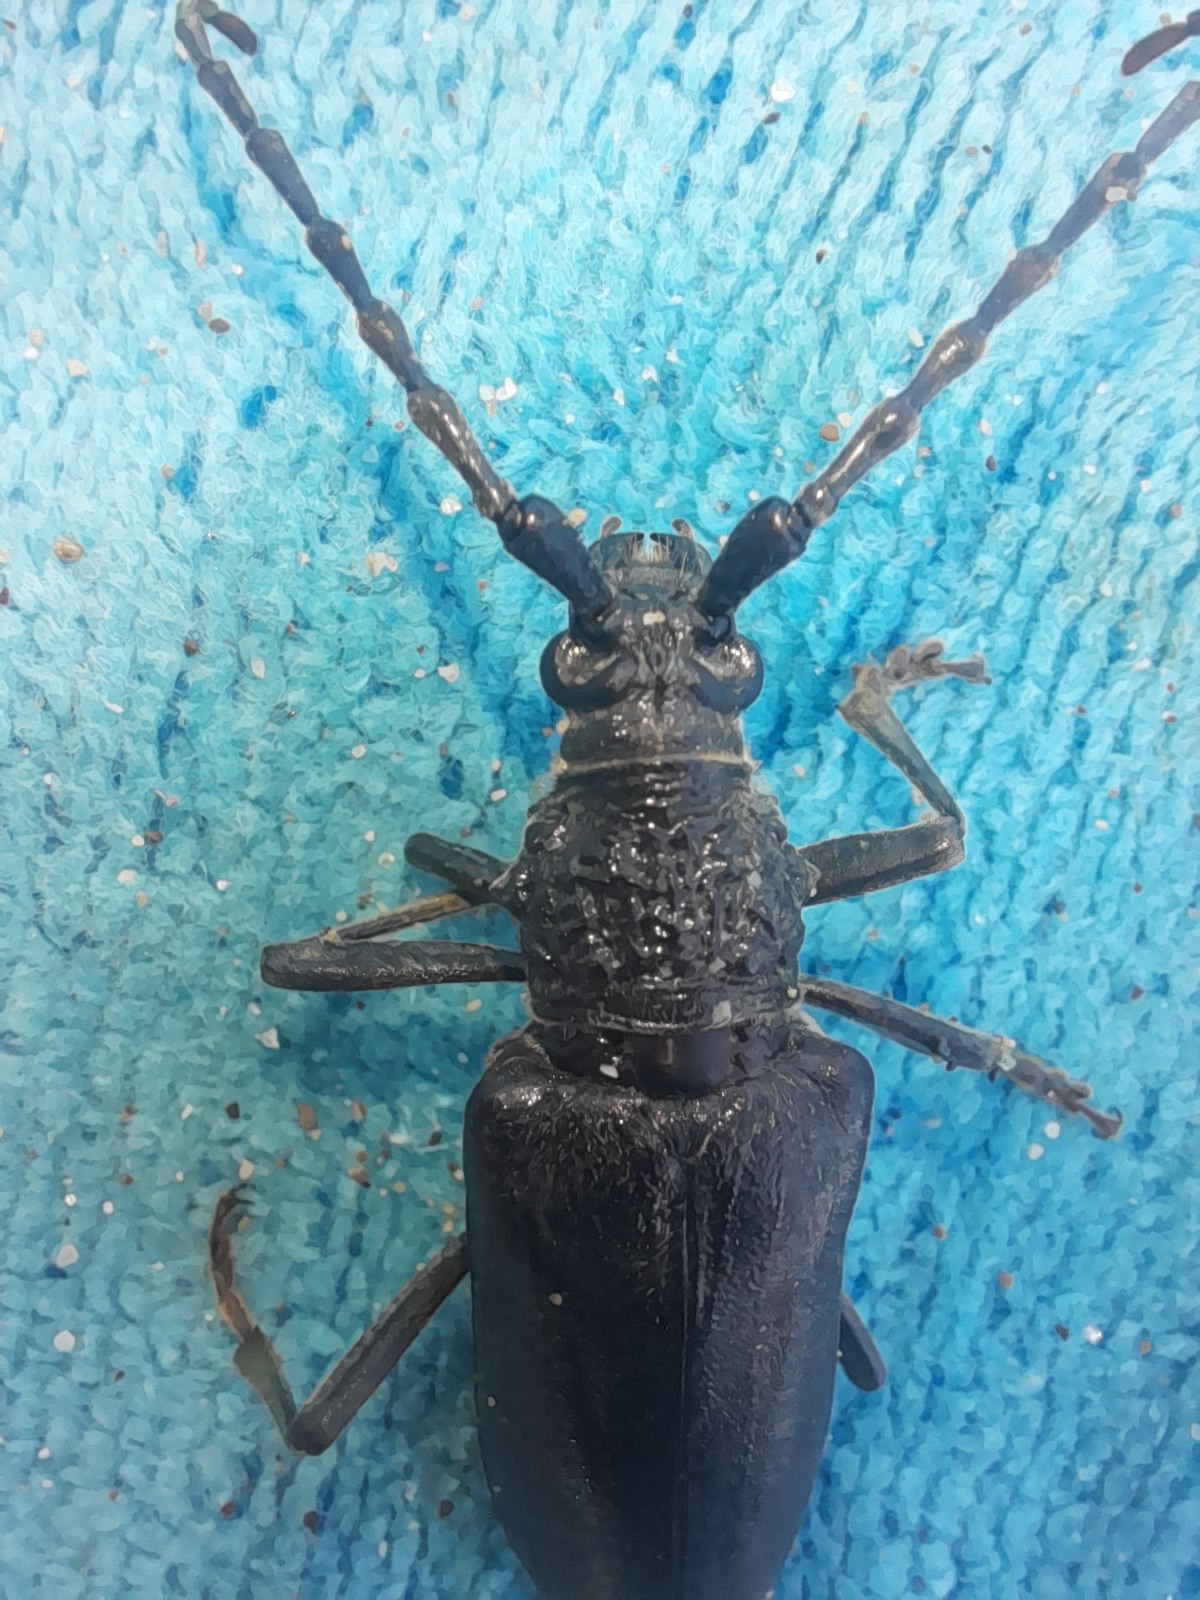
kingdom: Animalia
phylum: Arthropoda
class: Insecta
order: Coleoptera
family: Cerambycidae
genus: Cerambyx
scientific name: Cerambyx welensii
